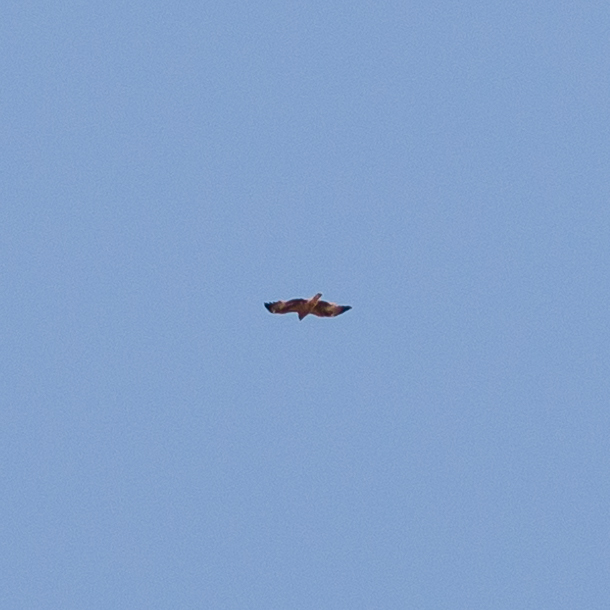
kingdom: Animalia
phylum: Chordata
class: Aves
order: Accipitriformes
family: Accipitridae
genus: Hieraaetus
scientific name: Hieraaetus pennatus
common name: Booted eagle
